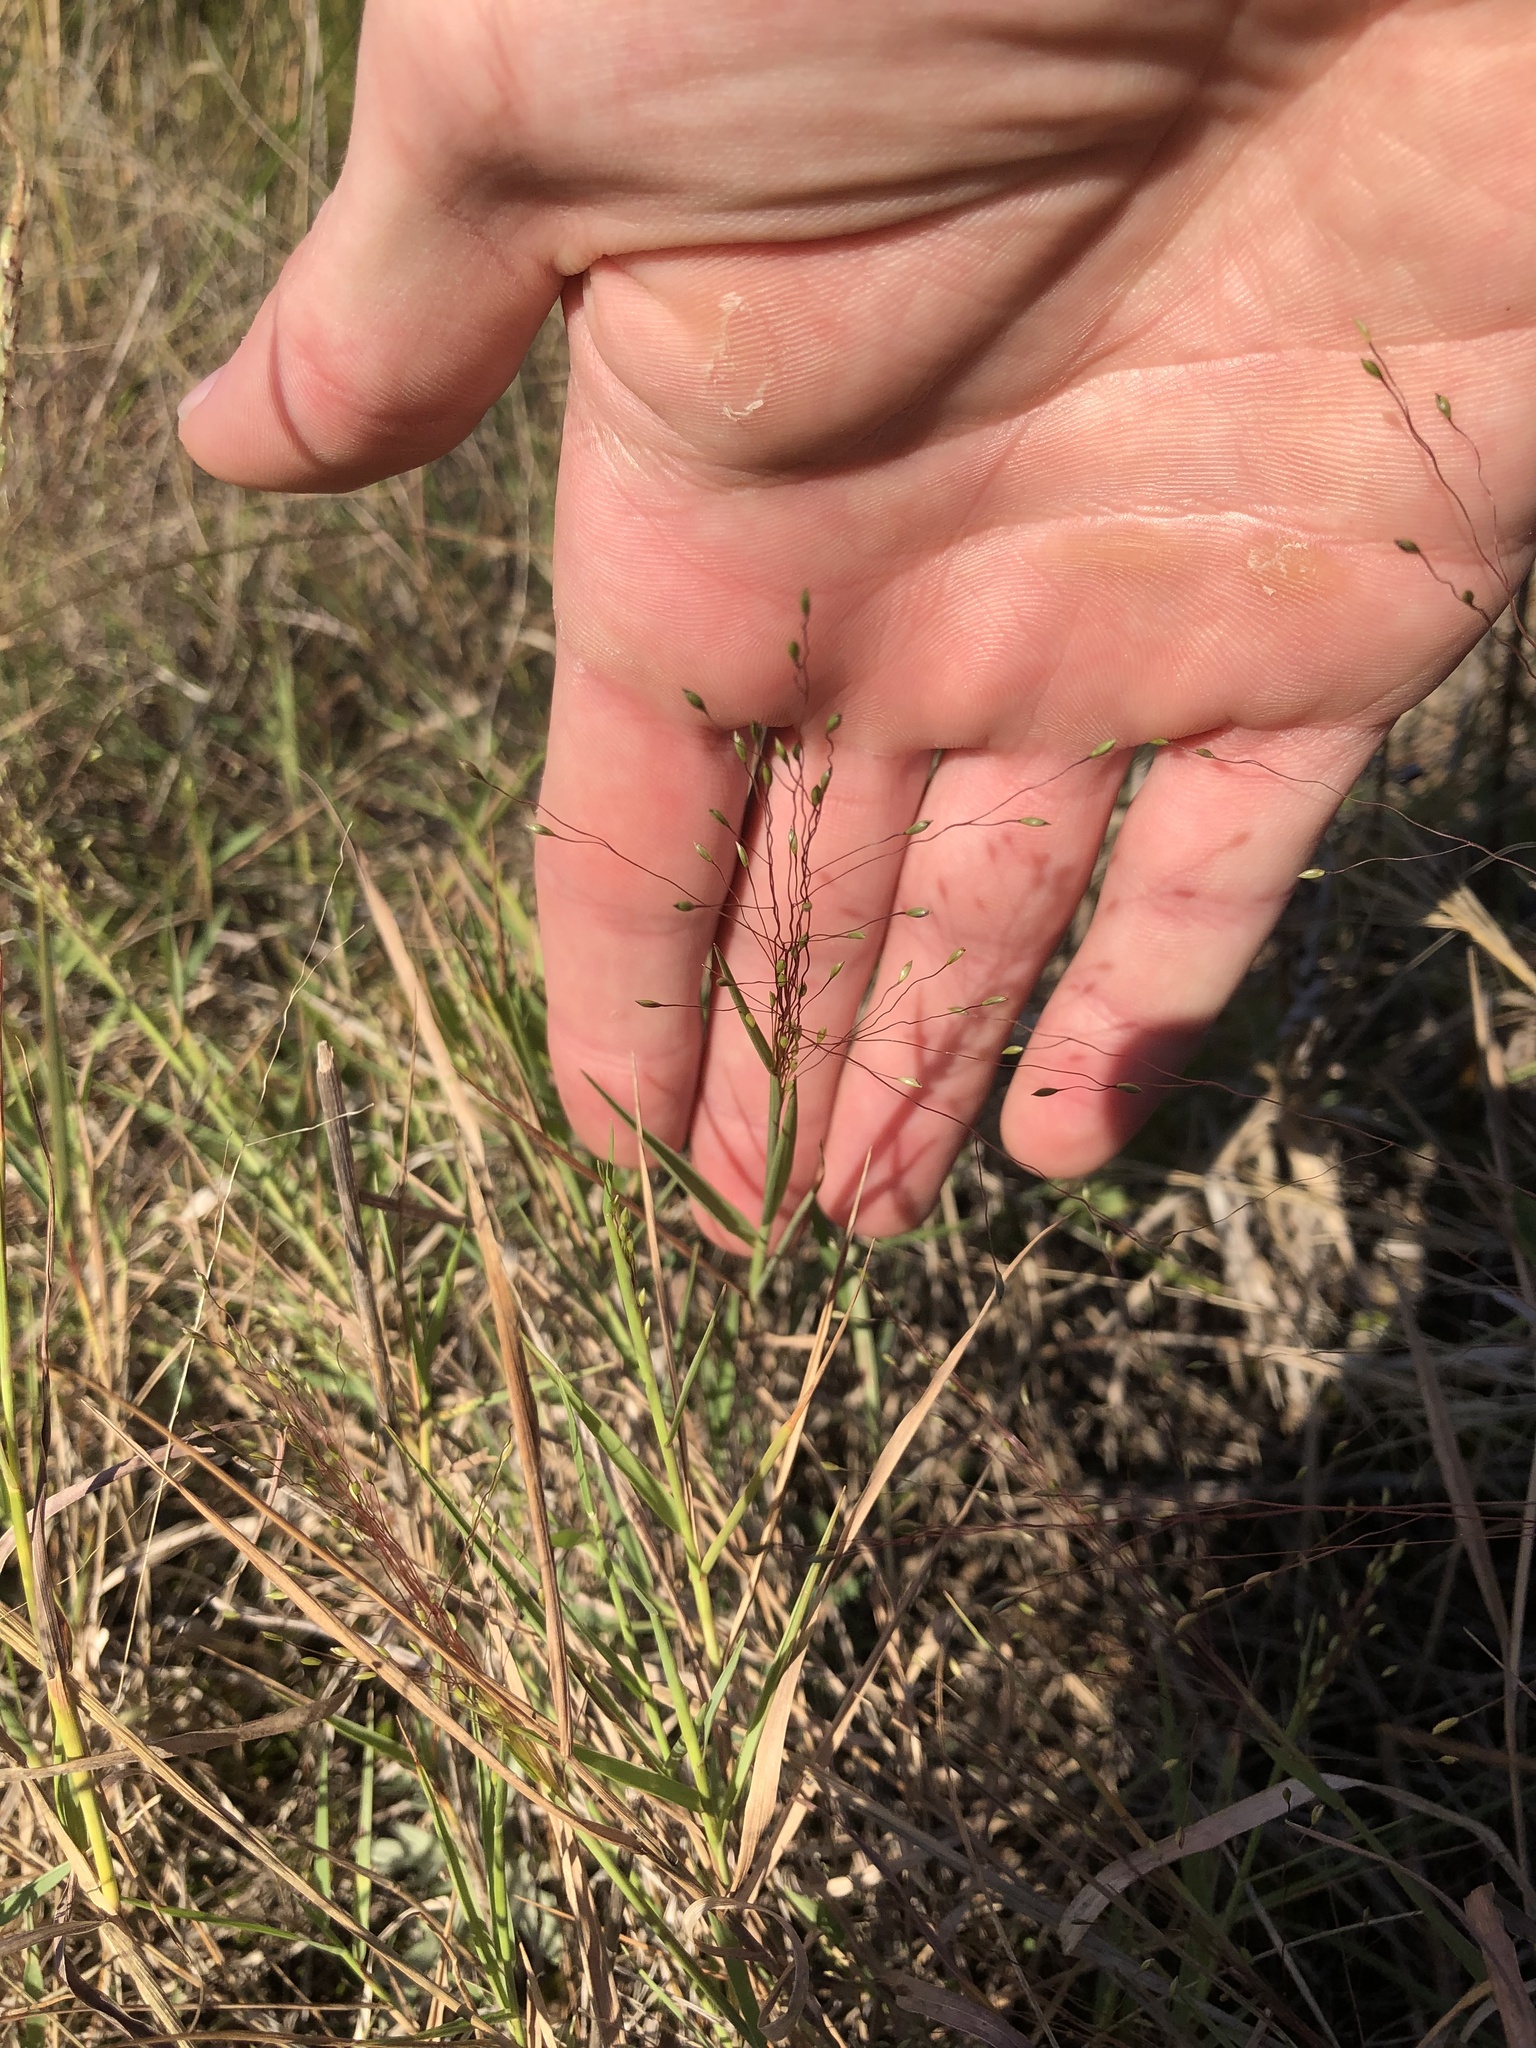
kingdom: Plantae
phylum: Tracheophyta
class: Liliopsida
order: Poales
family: Poaceae
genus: Digitaria
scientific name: Digitaria cognata
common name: Fall witchgrass
